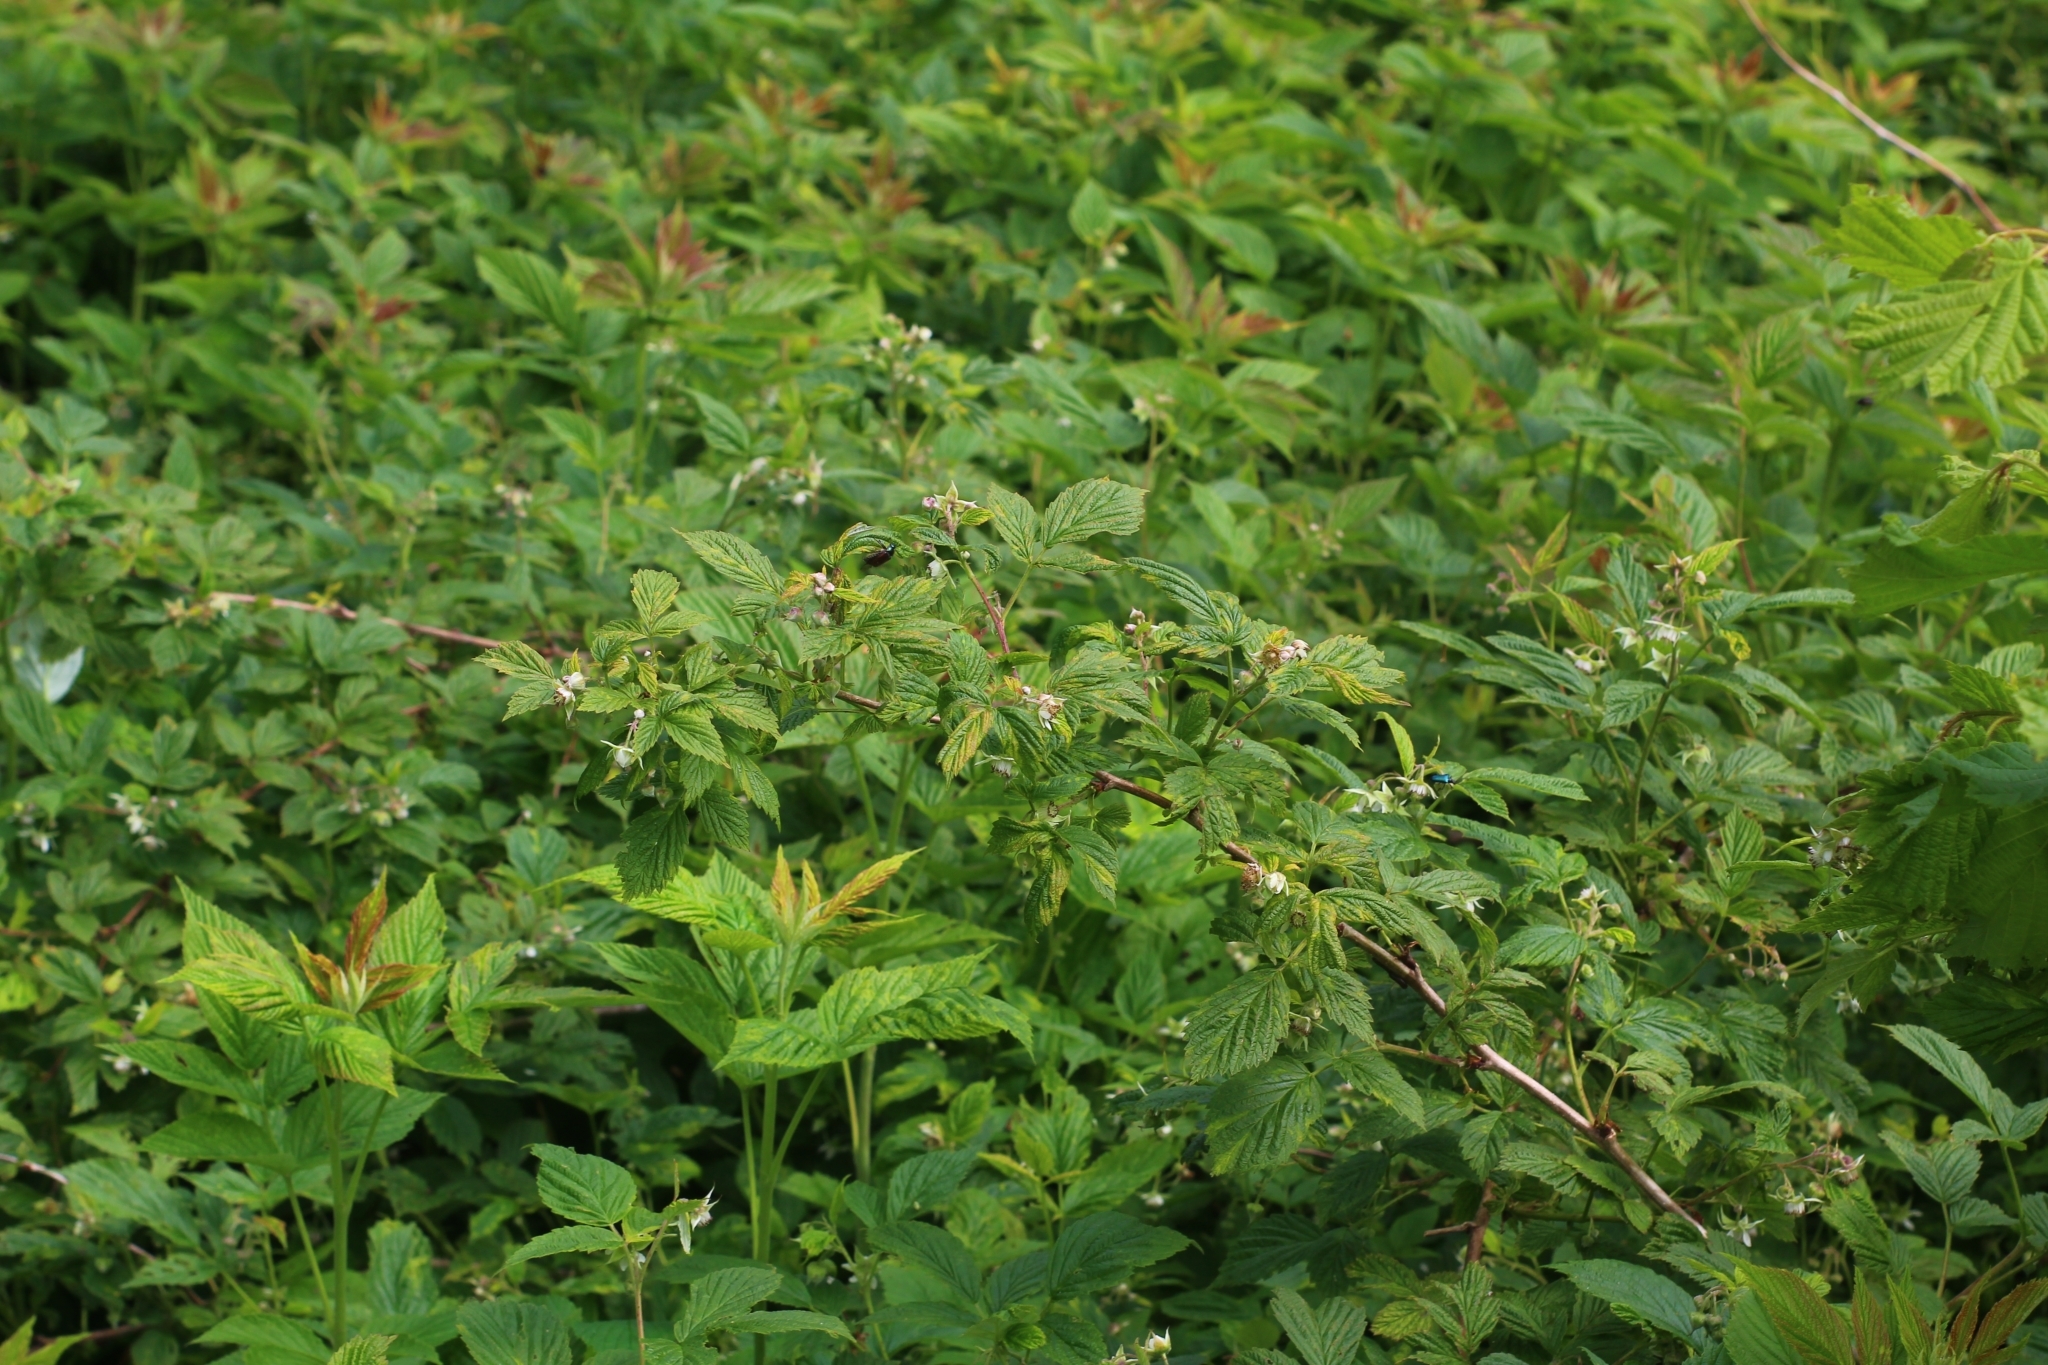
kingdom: Plantae
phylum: Tracheophyta
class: Magnoliopsida
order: Rosales
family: Rosaceae
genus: Rubus
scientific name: Rubus idaeus
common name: Raspberry
